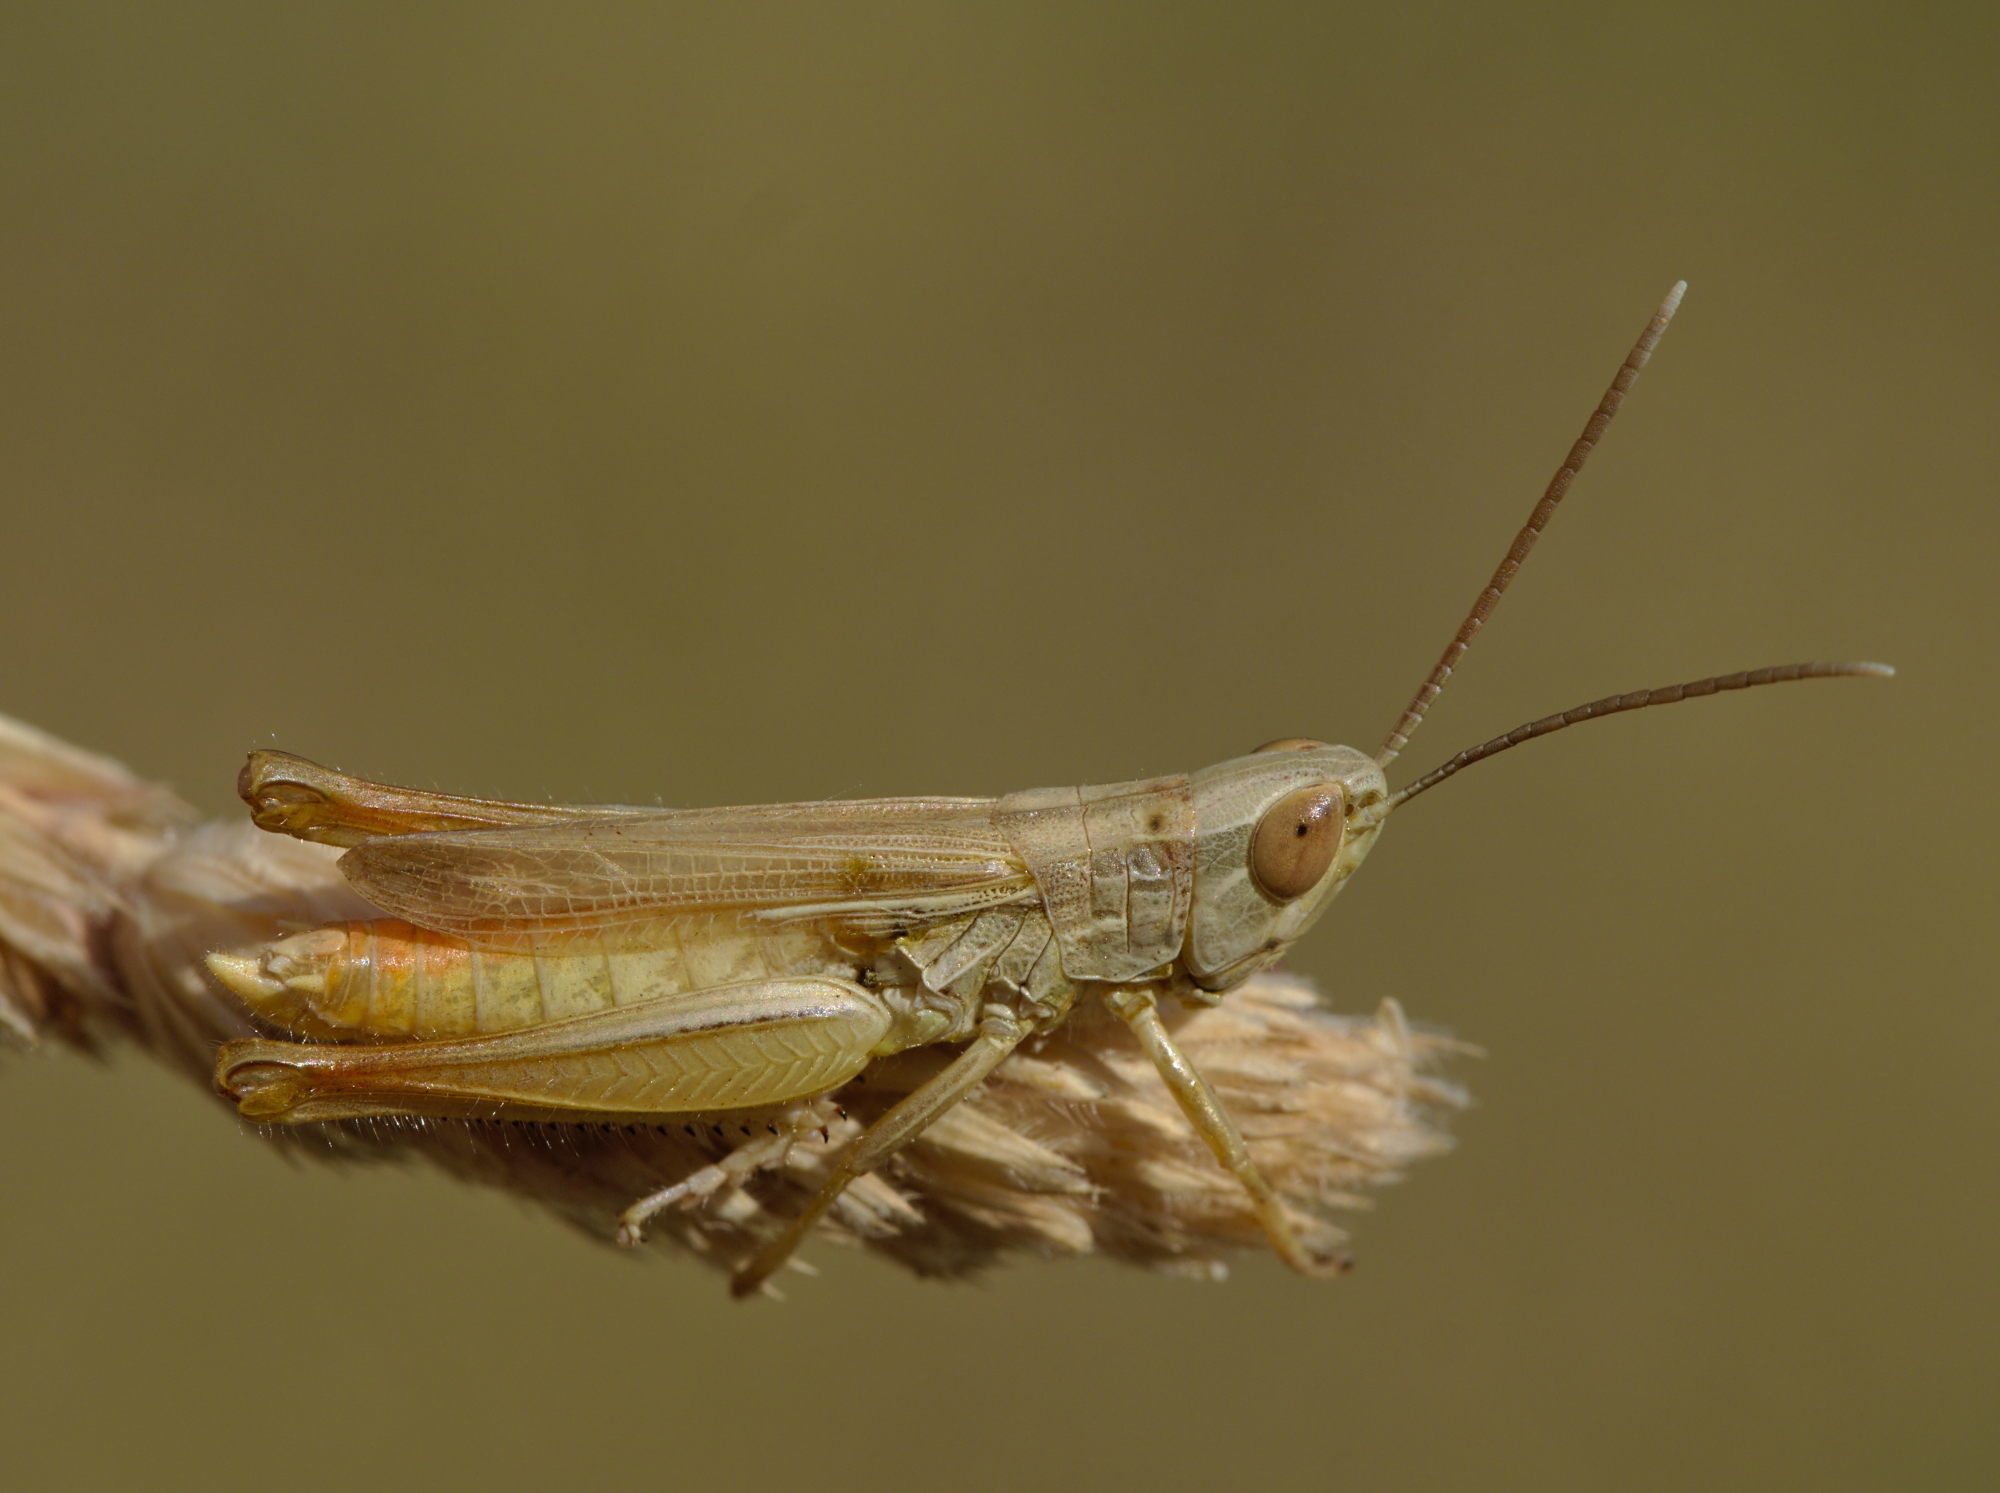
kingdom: Animalia
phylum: Arthropoda
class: Insecta
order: Orthoptera
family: Acrididae
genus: Euchorthippus
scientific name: Euchorthippus elegantulus
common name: Elegant straw grasshopper
